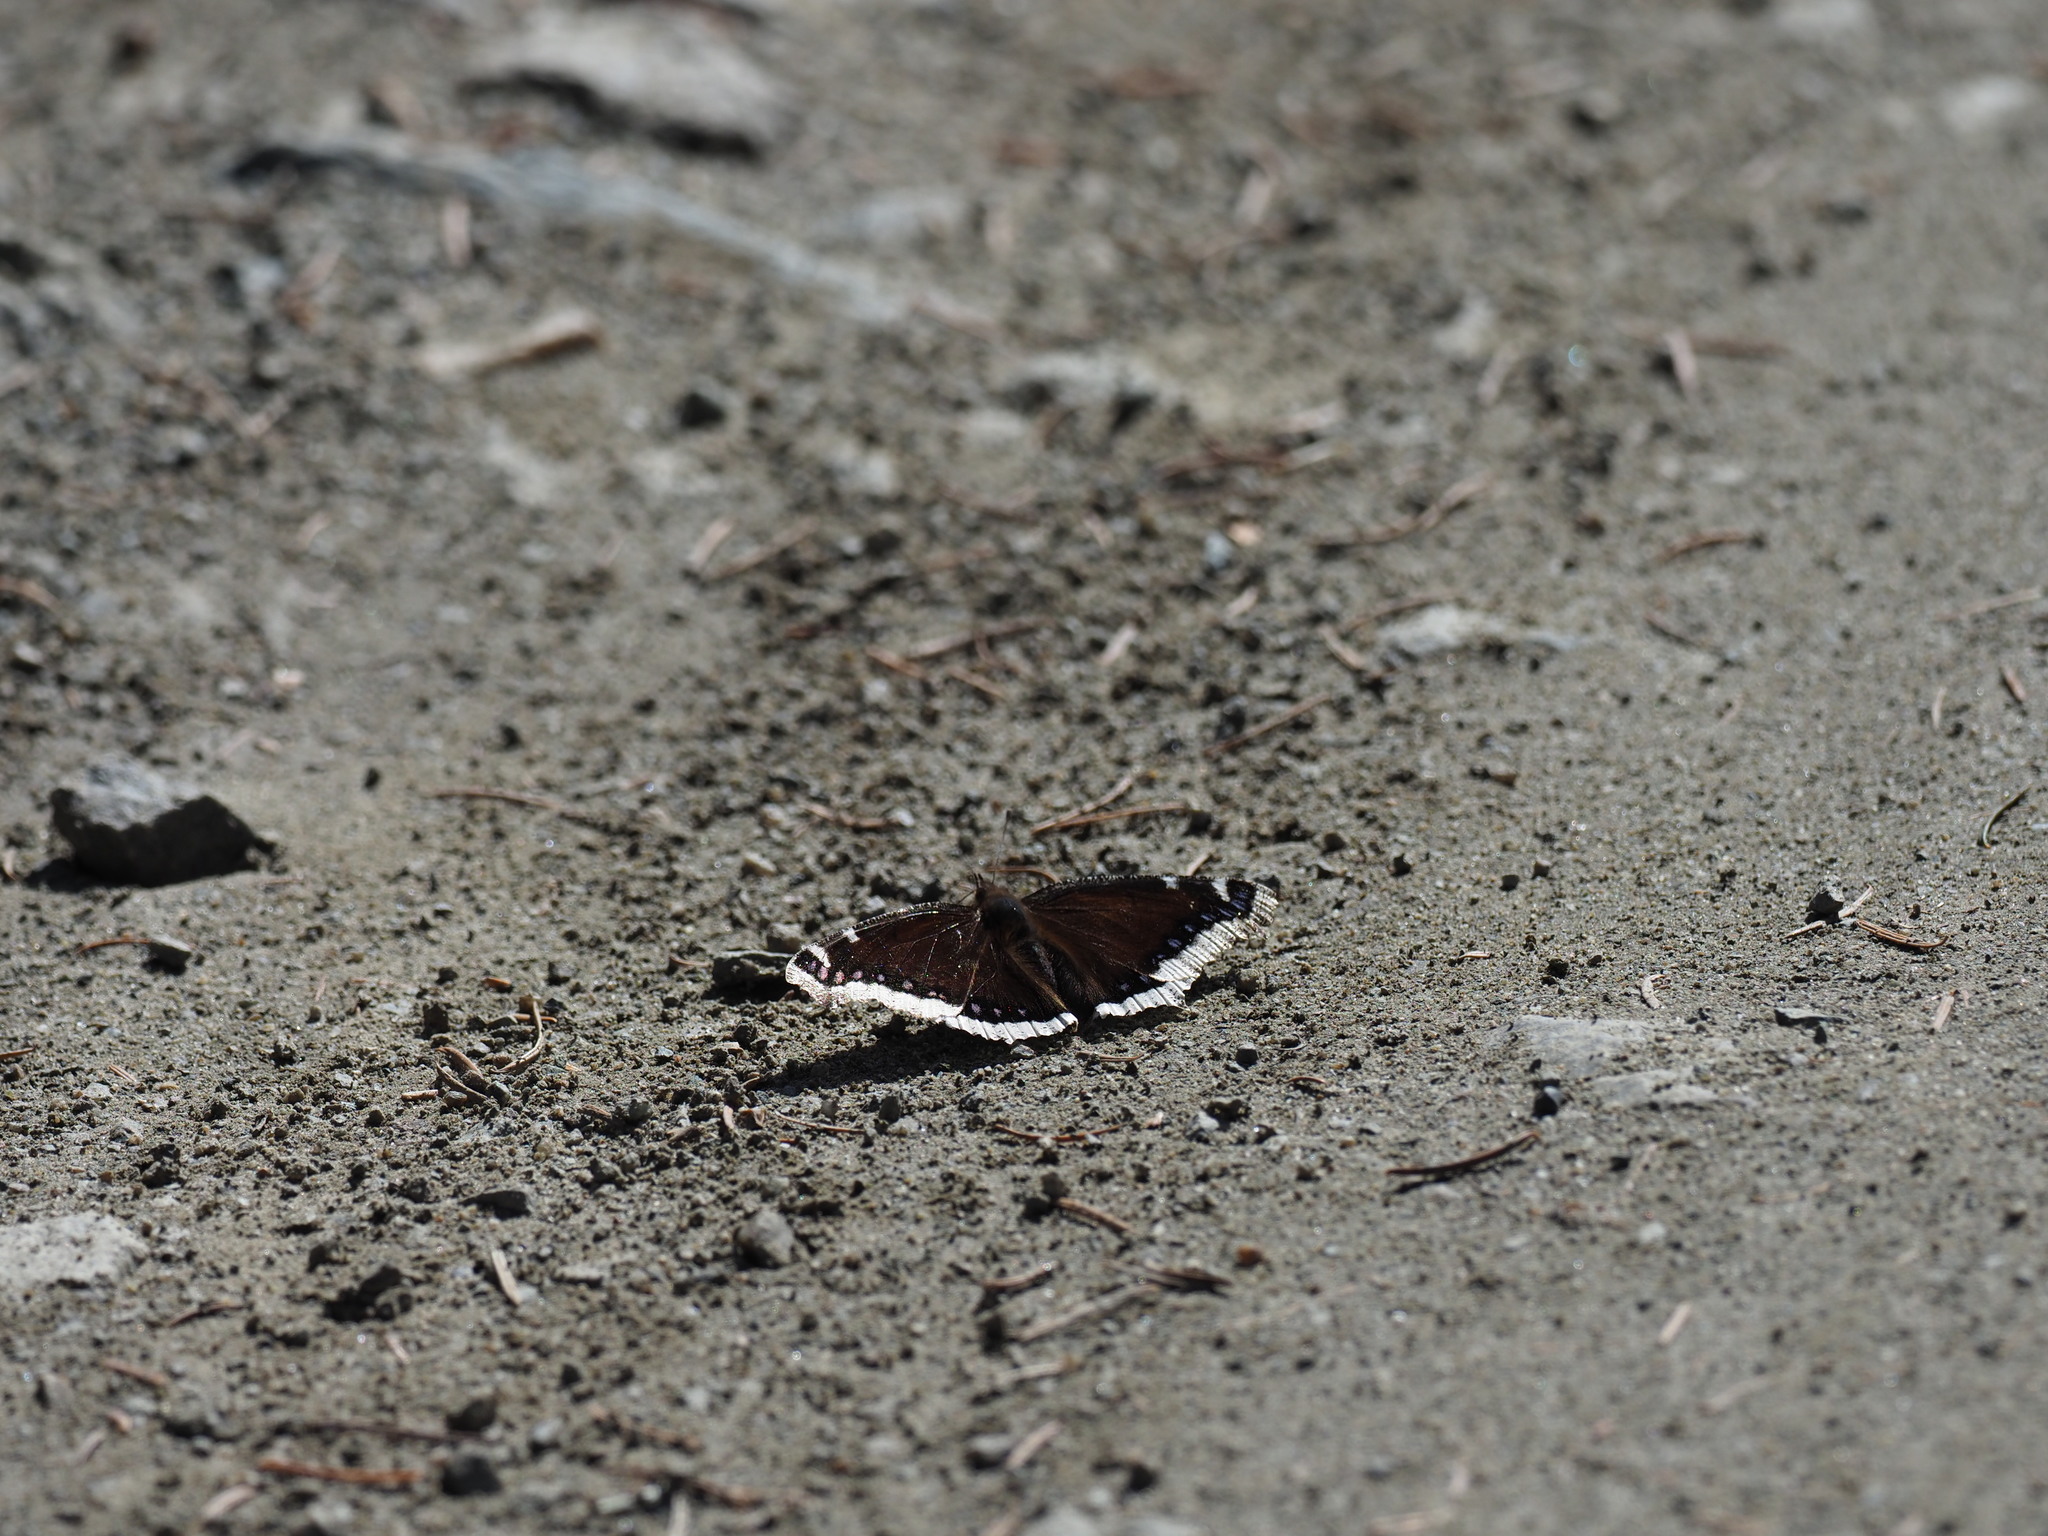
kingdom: Animalia
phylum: Arthropoda
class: Insecta
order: Lepidoptera
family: Nymphalidae
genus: Nymphalis
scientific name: Nymphalis antiopa
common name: Camberwell beauty
